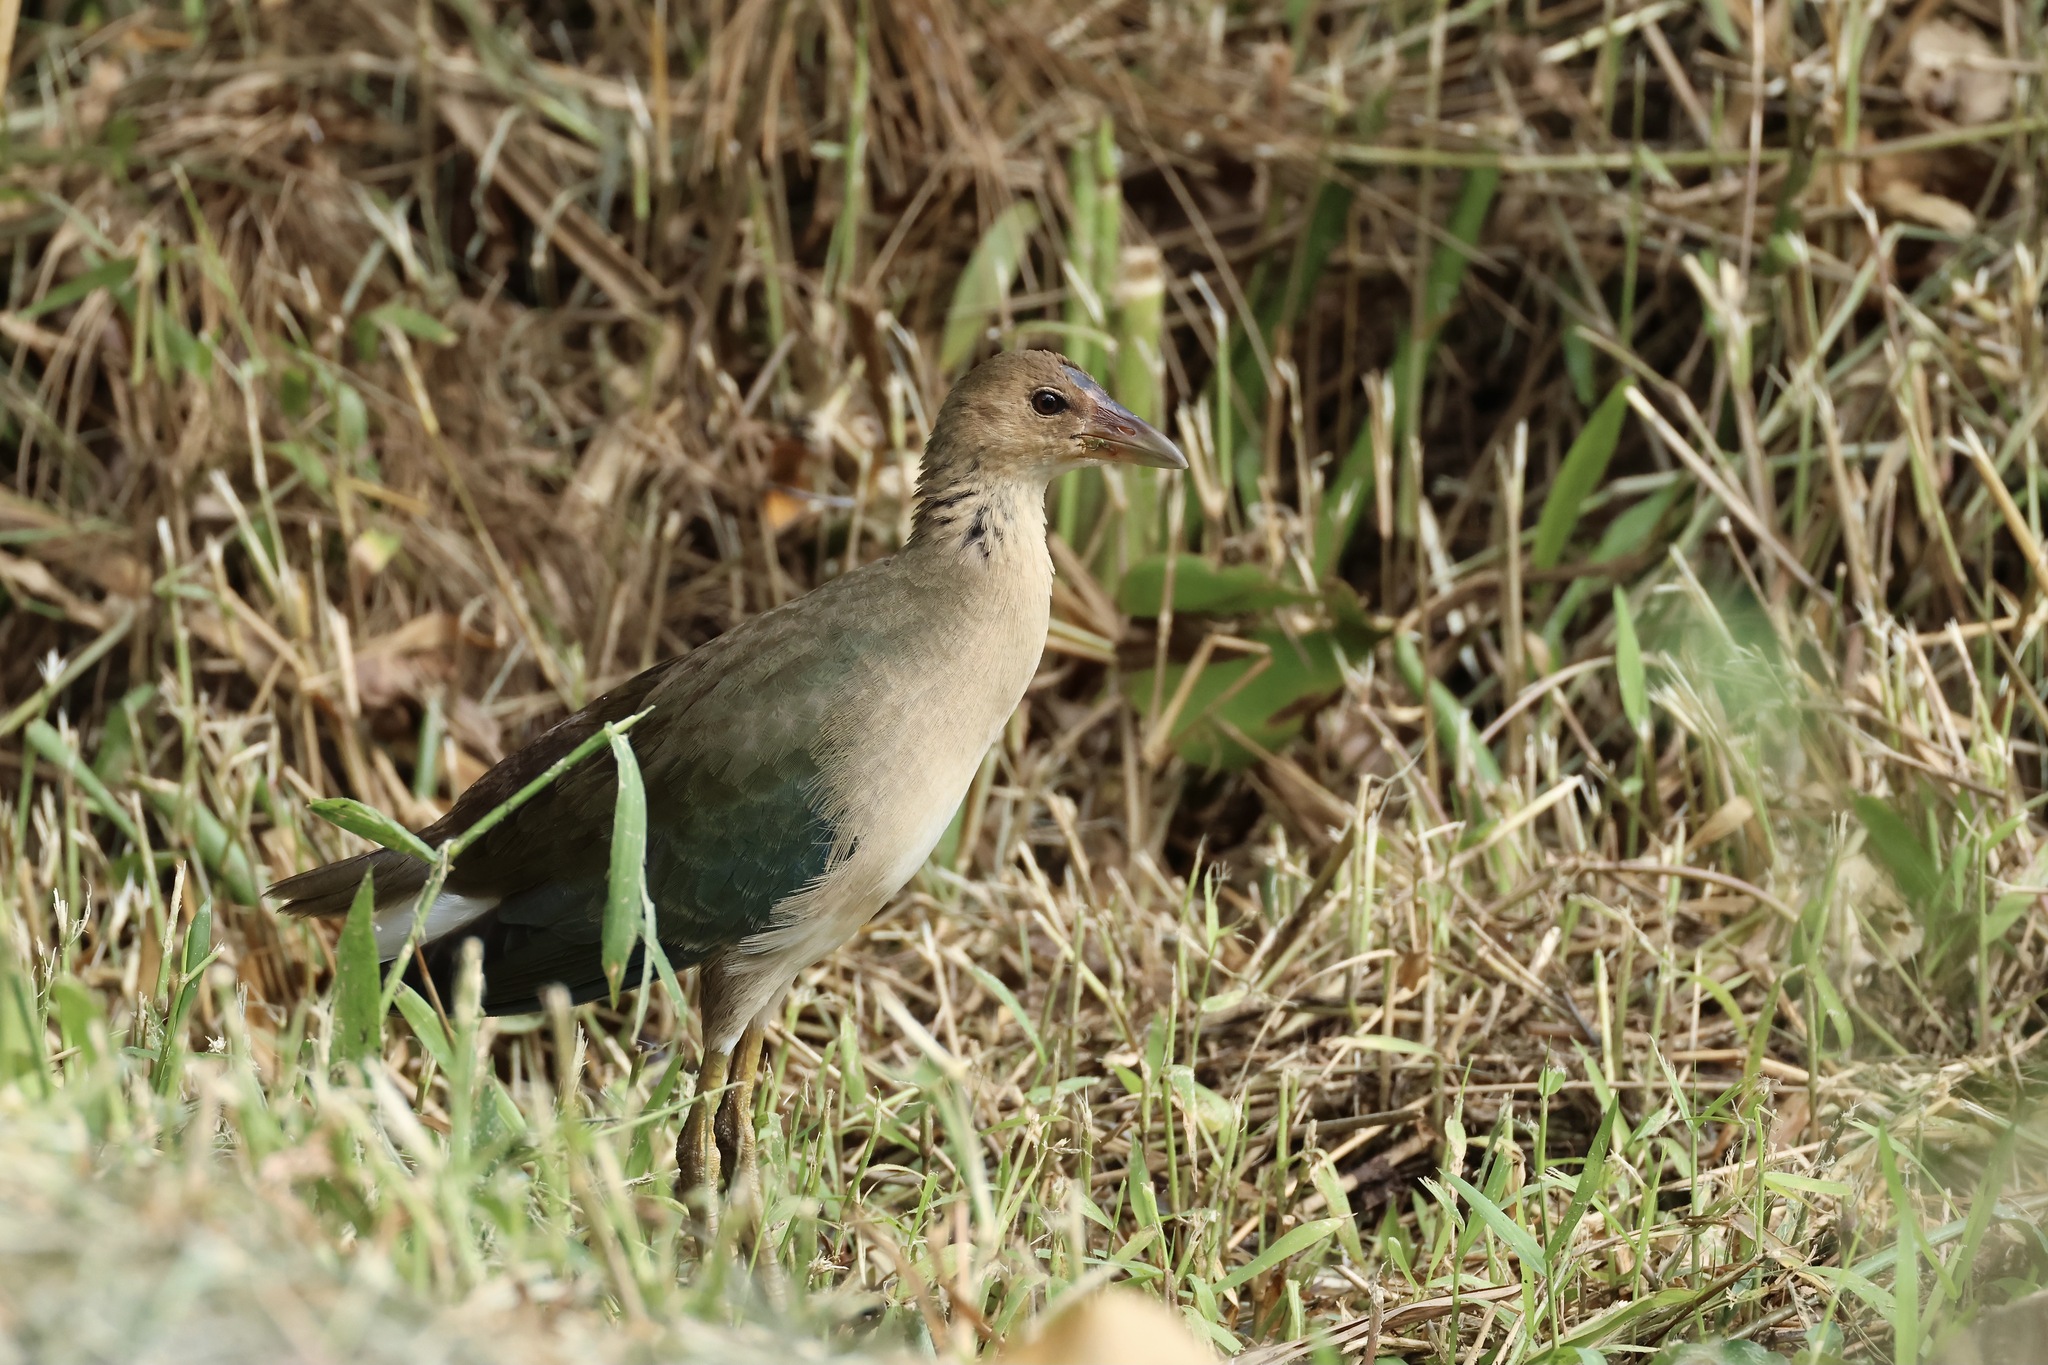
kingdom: Animalia
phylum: Chordata
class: Aves
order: Gruiformes
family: Rallidae
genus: Porphyrio
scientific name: Porphyrio martinica
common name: Purple gallinule
